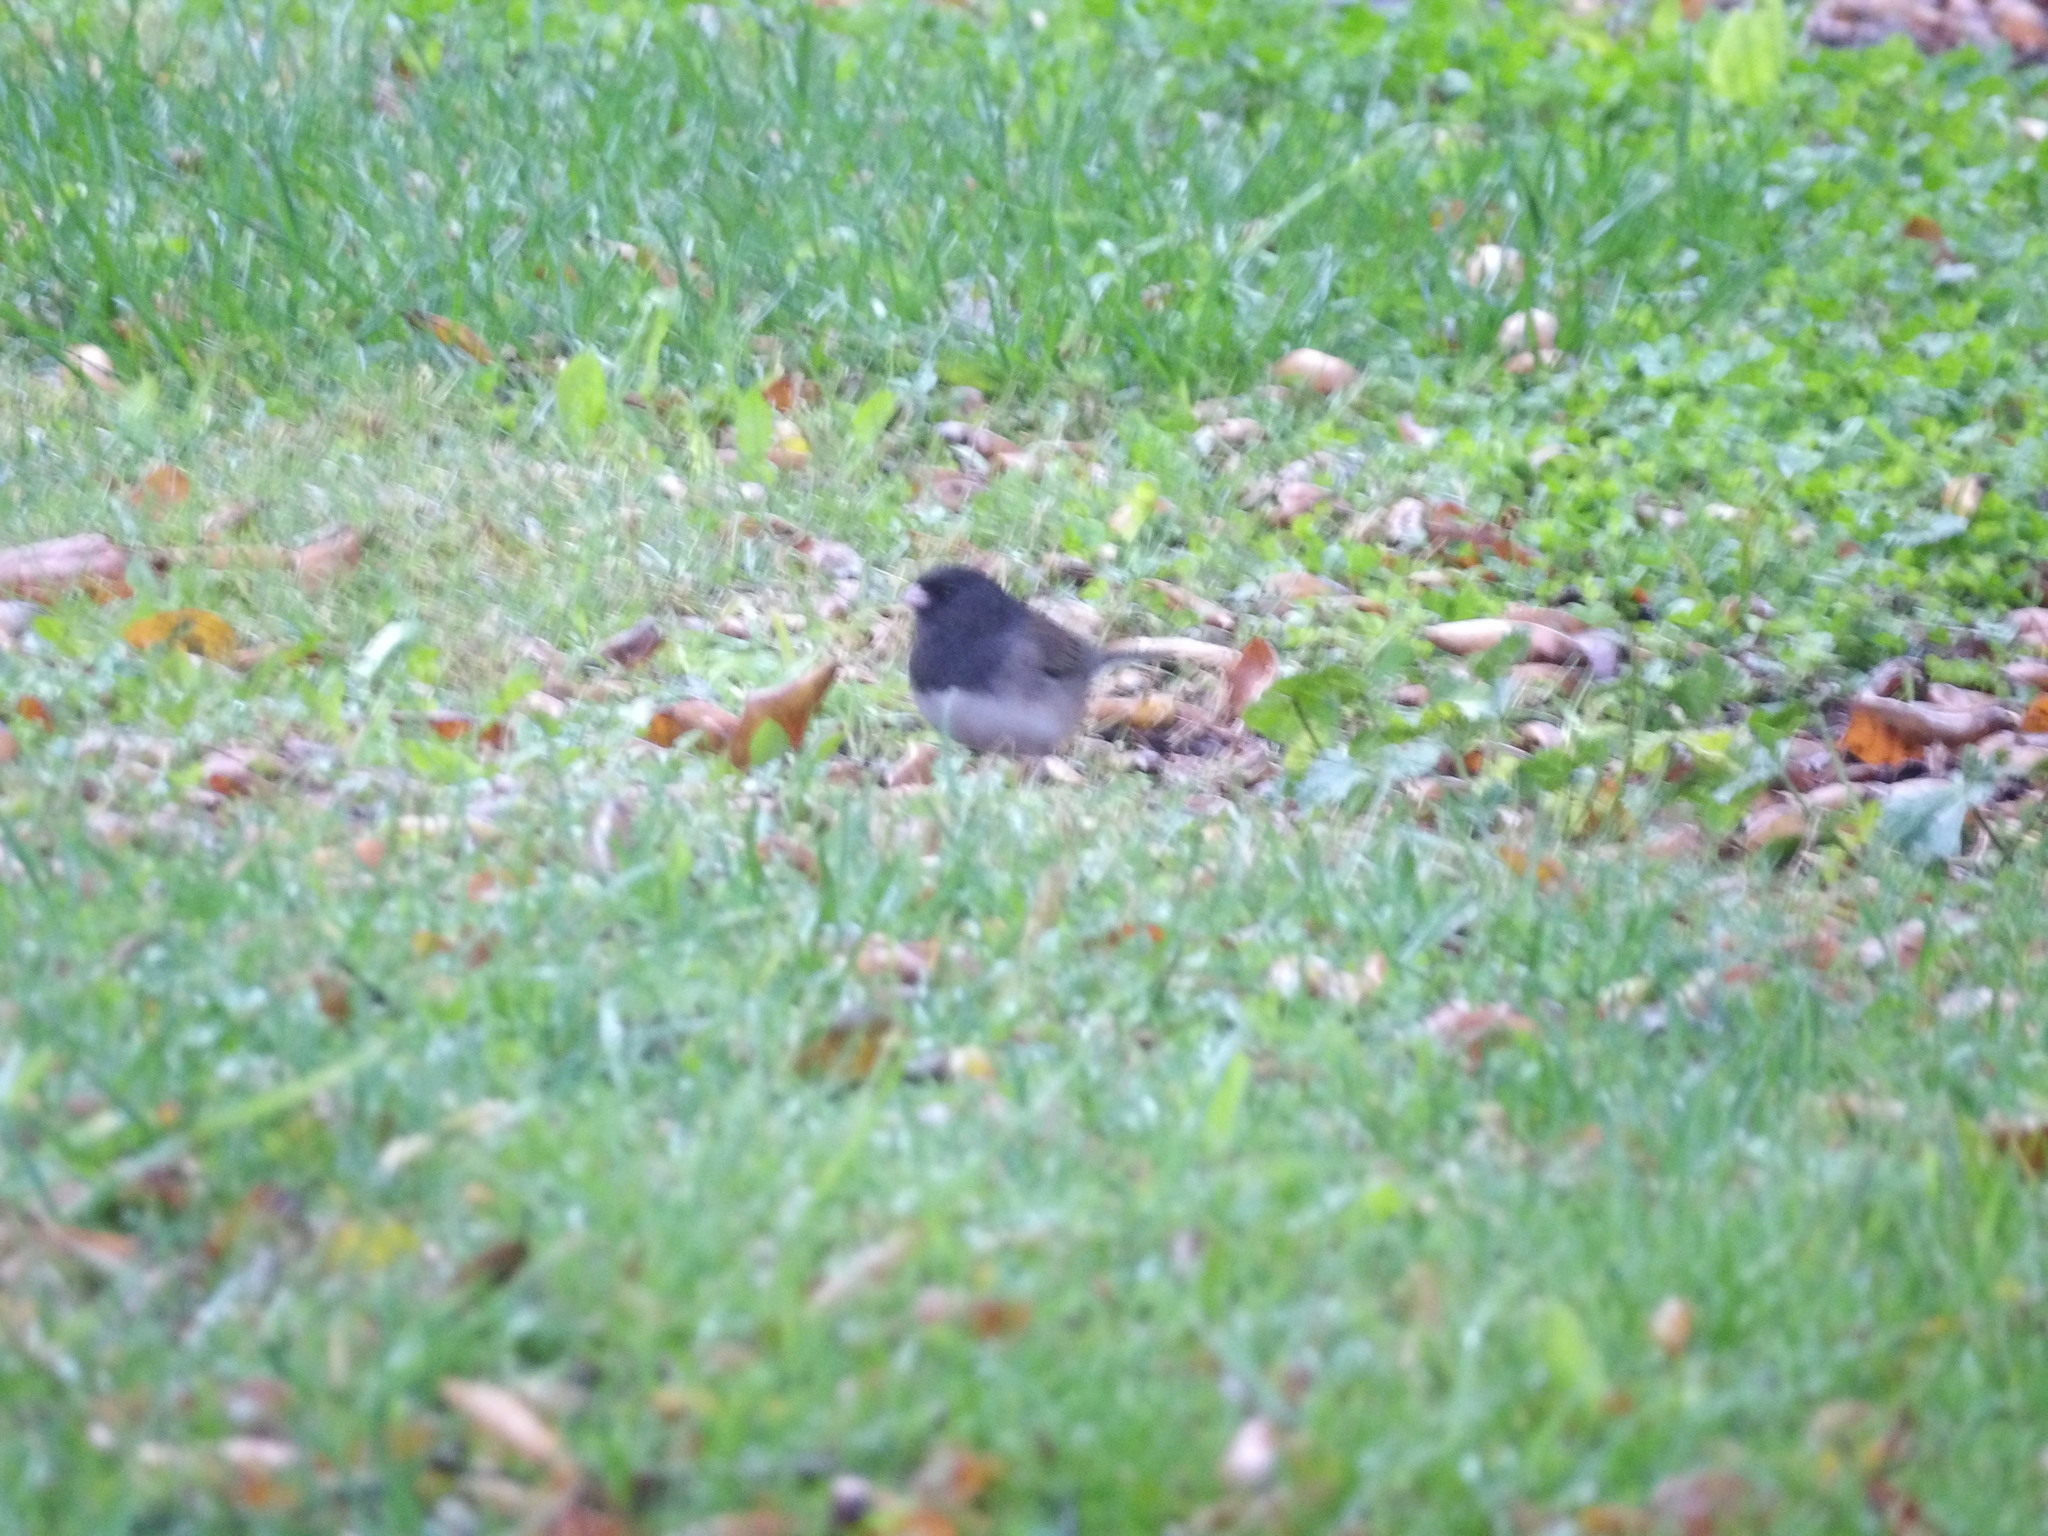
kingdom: Animalia
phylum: Chordata
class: Aves
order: Passeriformes
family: Passerellidae
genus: Junco
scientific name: Junco hyemalis
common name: Dark-eyed junco
